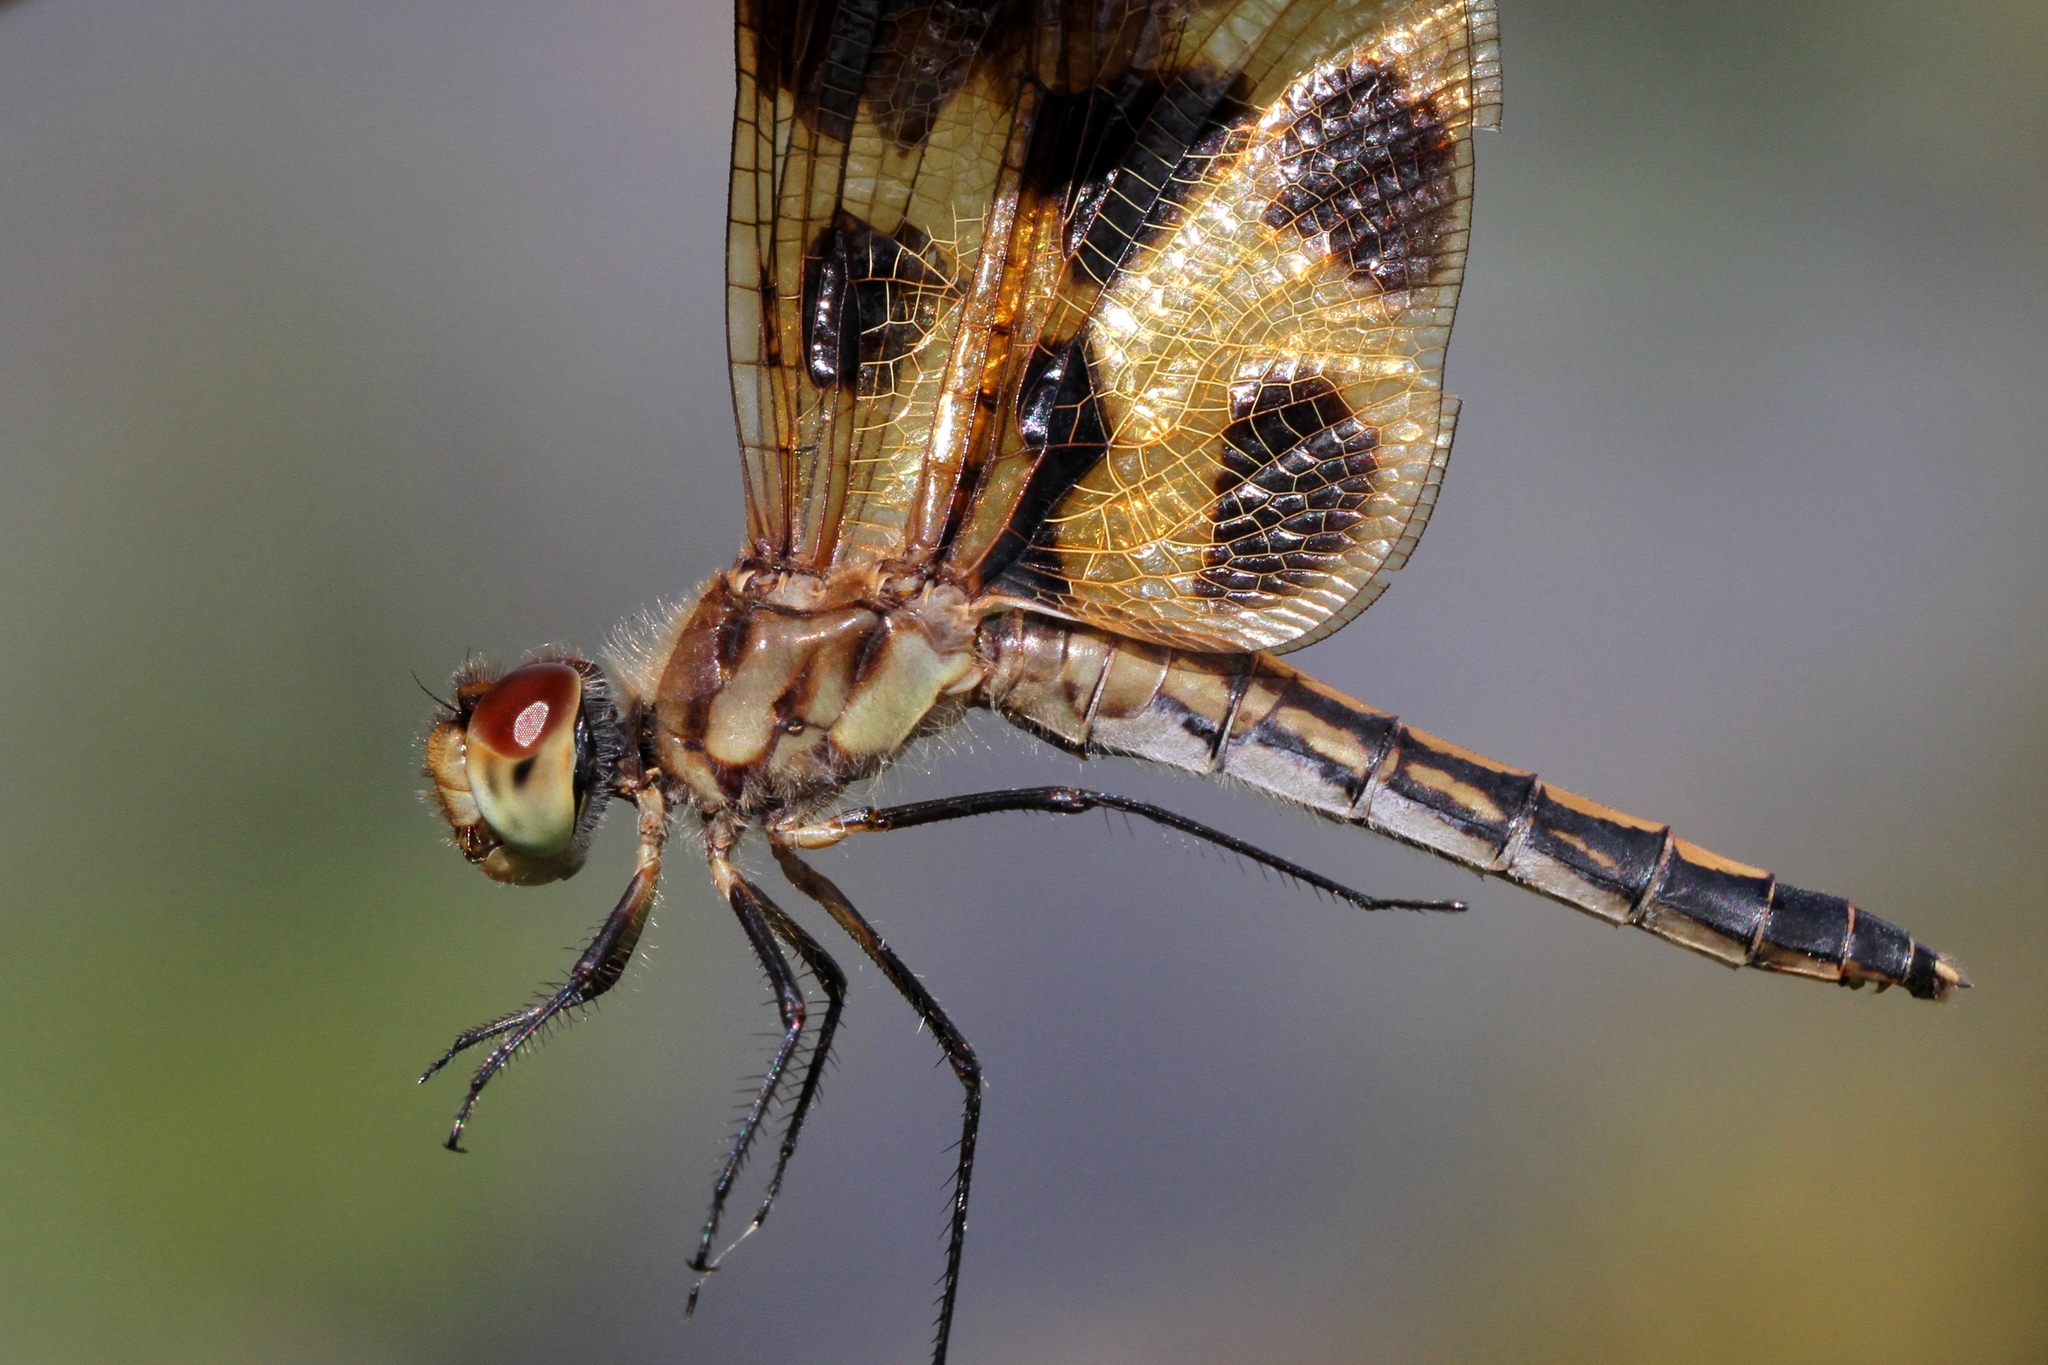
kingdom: Animalia
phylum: Arthropoda
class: Insecta
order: Odonata
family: Libellulidae
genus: Celithemis
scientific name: Celithemis eponina
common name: Halloween pennant
